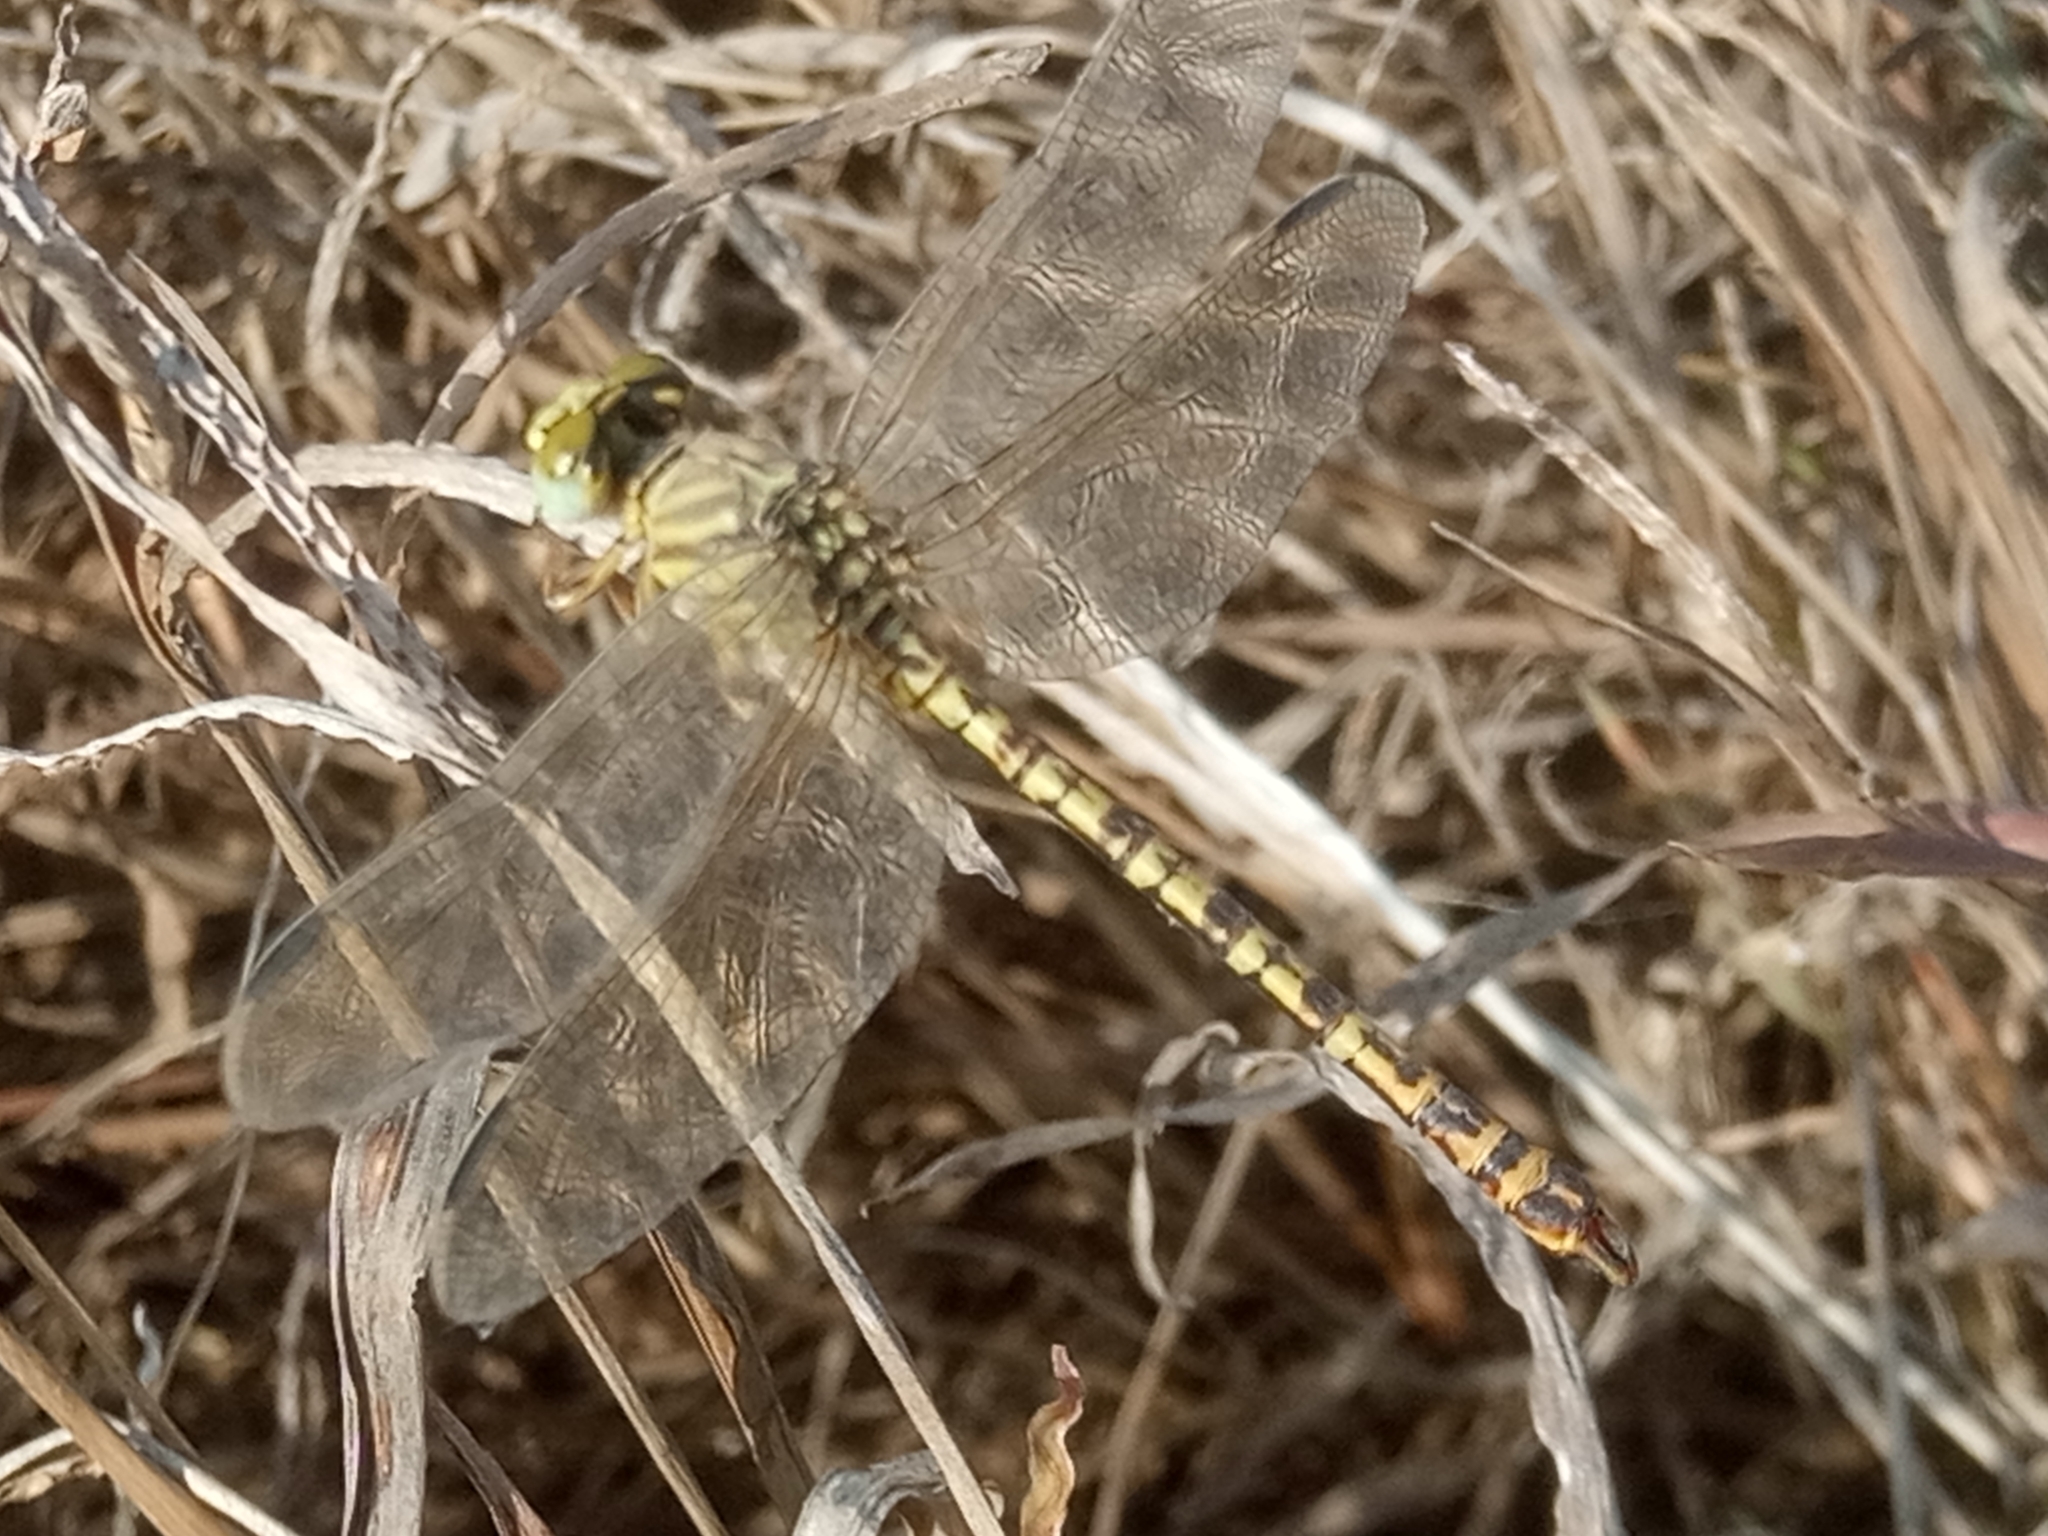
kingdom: Animalia
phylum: Arthropoda
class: Insecta
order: Odonata
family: Gomphidae
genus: Crenigomphus
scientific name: Crenigomphus renei
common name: Western talontail
